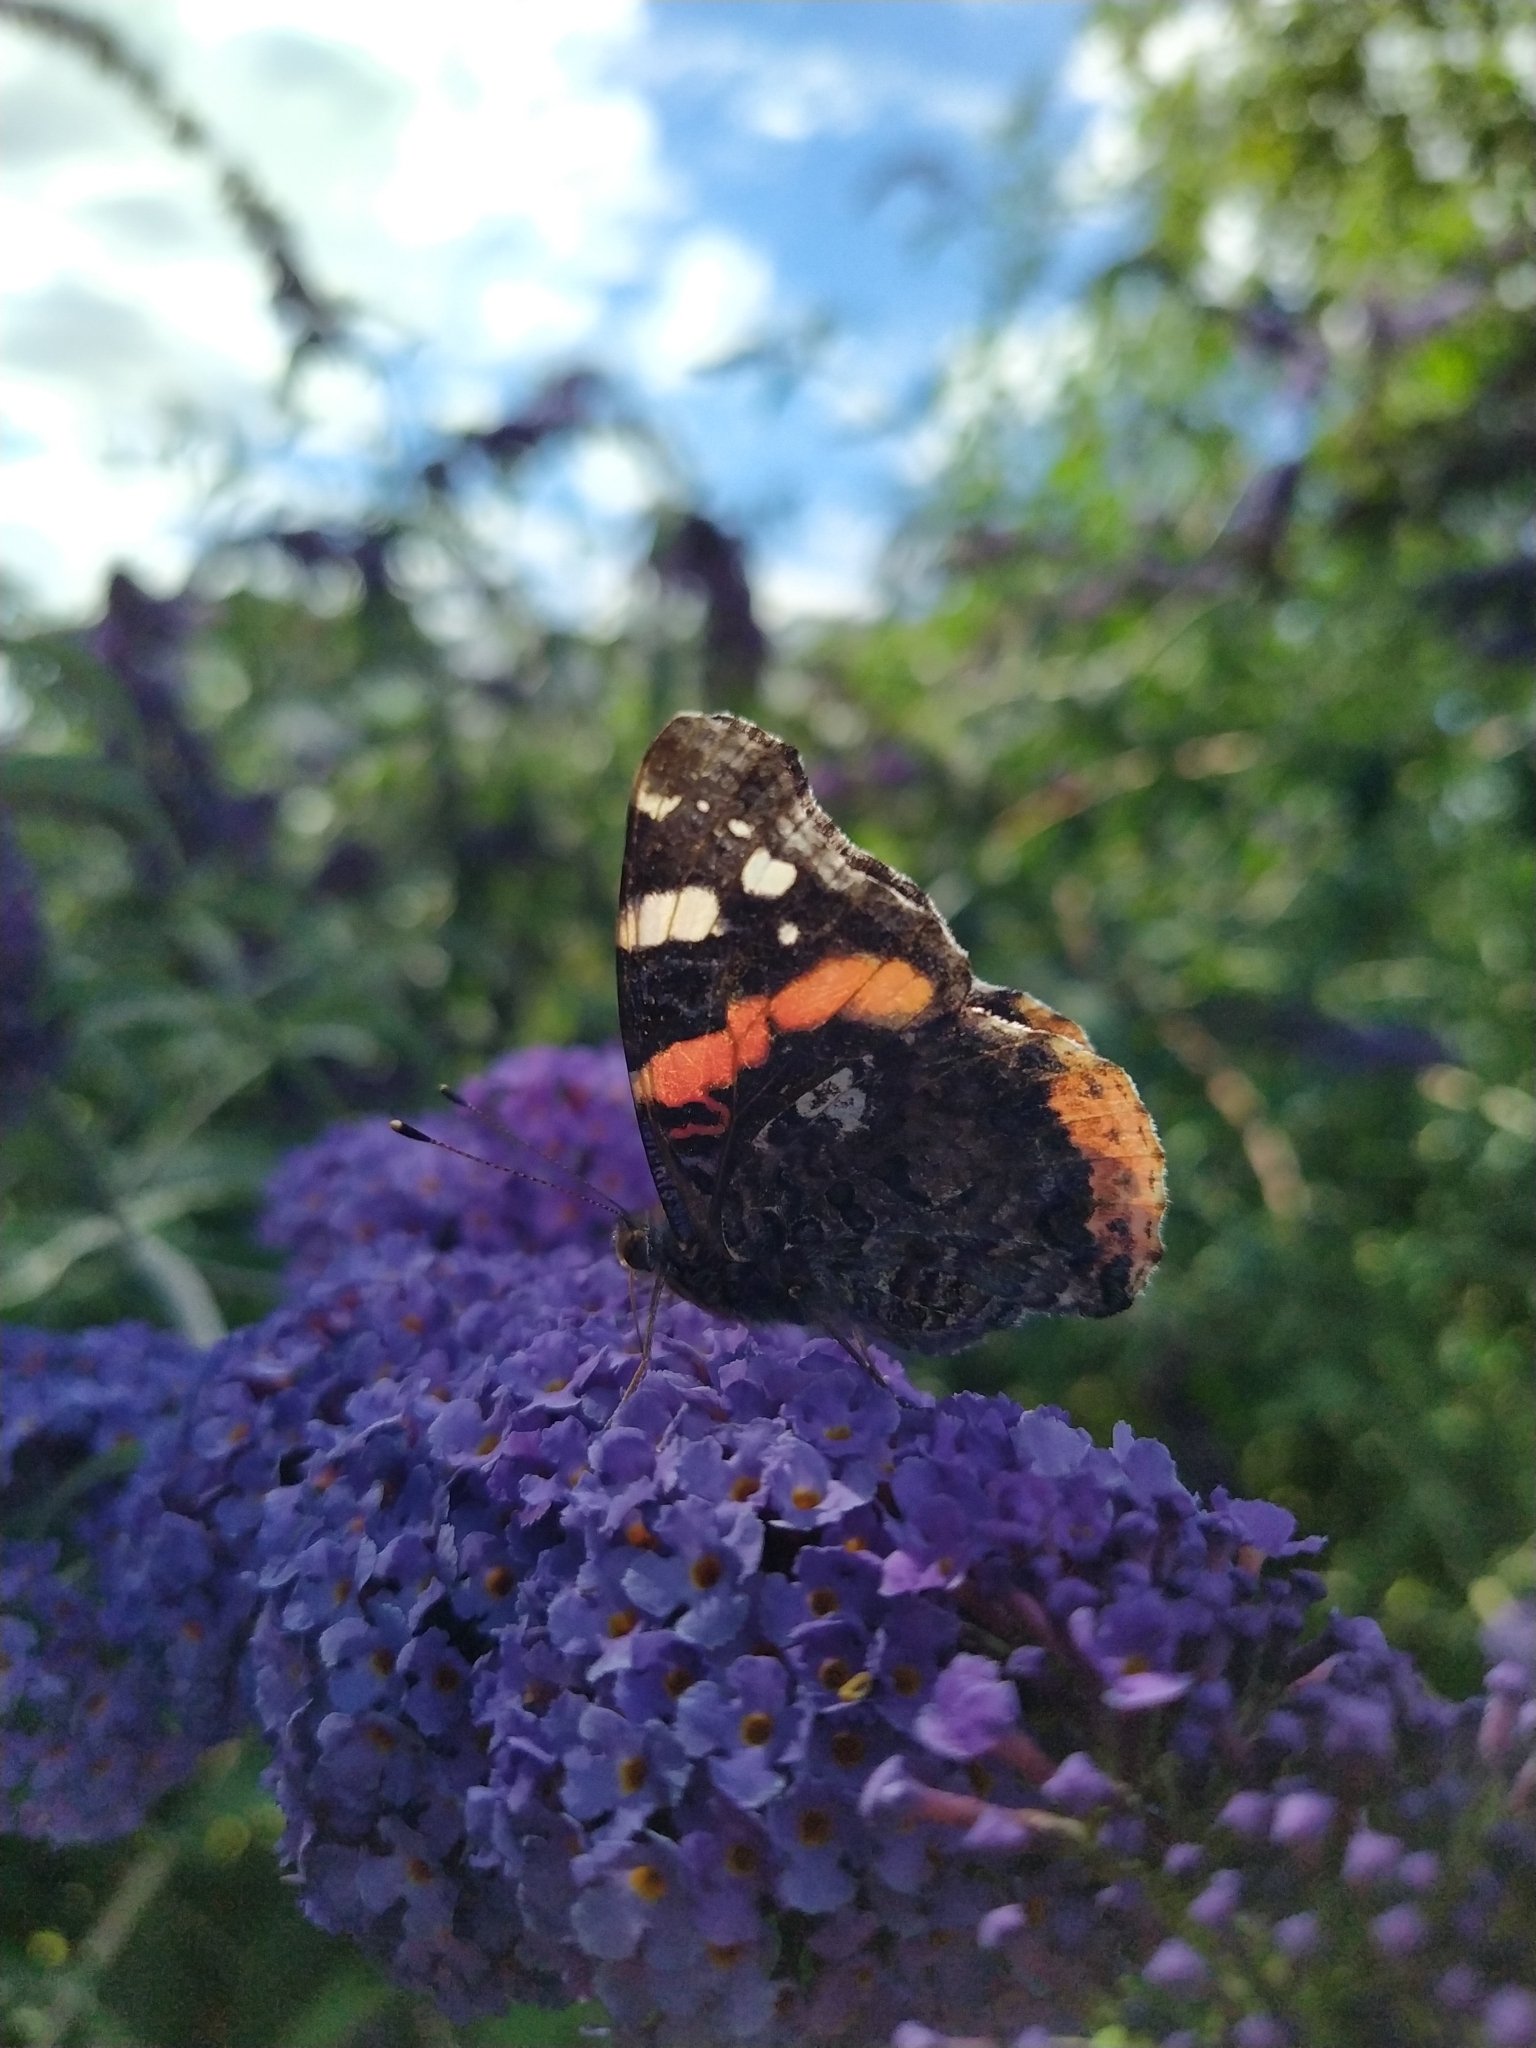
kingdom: Animalia
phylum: Arthropoda
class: Insecta
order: Lepidoptera
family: Nymphalidae
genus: Vanessa
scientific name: Vanessa atalanta
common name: Red admiral
